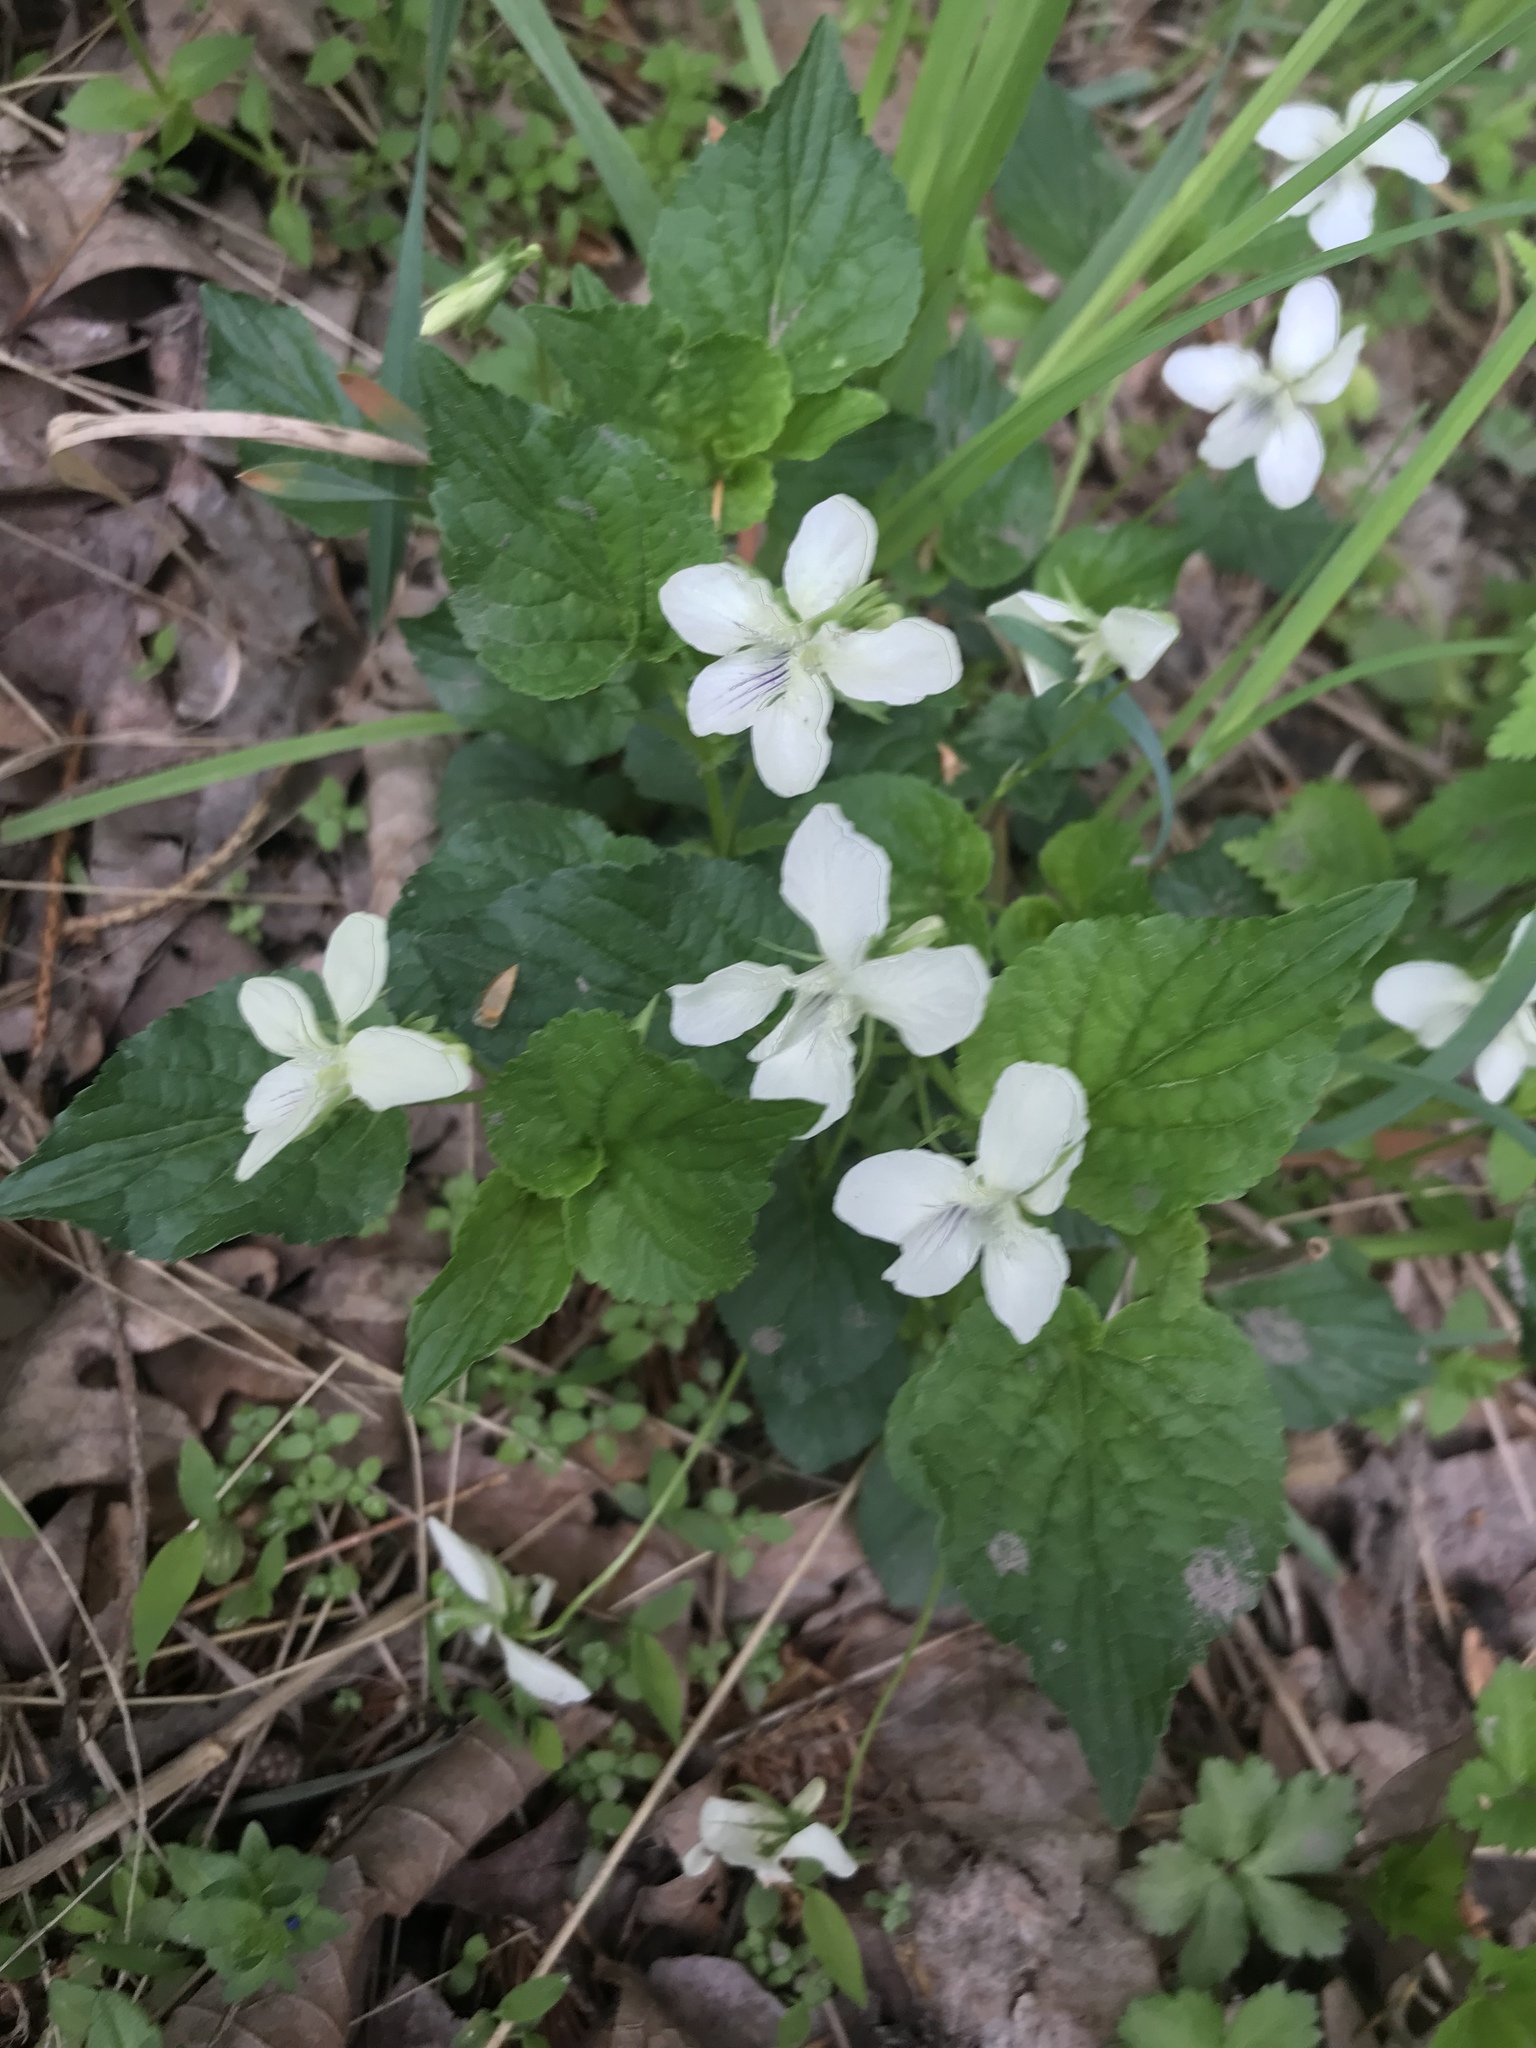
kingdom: Plantae
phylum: Tracheophyta
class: Magnoliopsida
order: Malpighiales
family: Violaceae
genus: Viola
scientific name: Viola striata
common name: Cream violet
